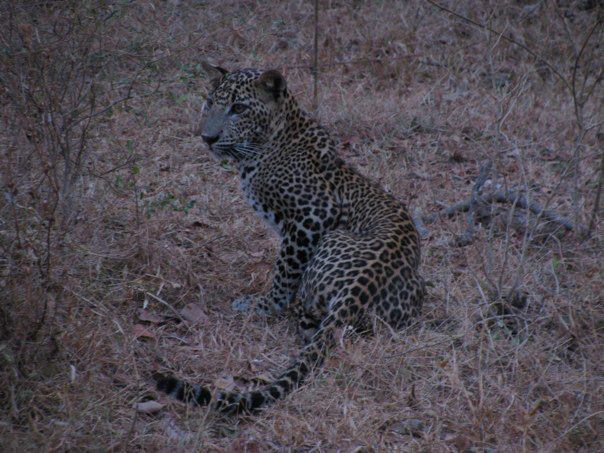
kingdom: Animalia
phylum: Chordata
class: Mammalia
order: Carnivora
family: Felidae
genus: Panthera
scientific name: Panthera pardus
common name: Leopard
